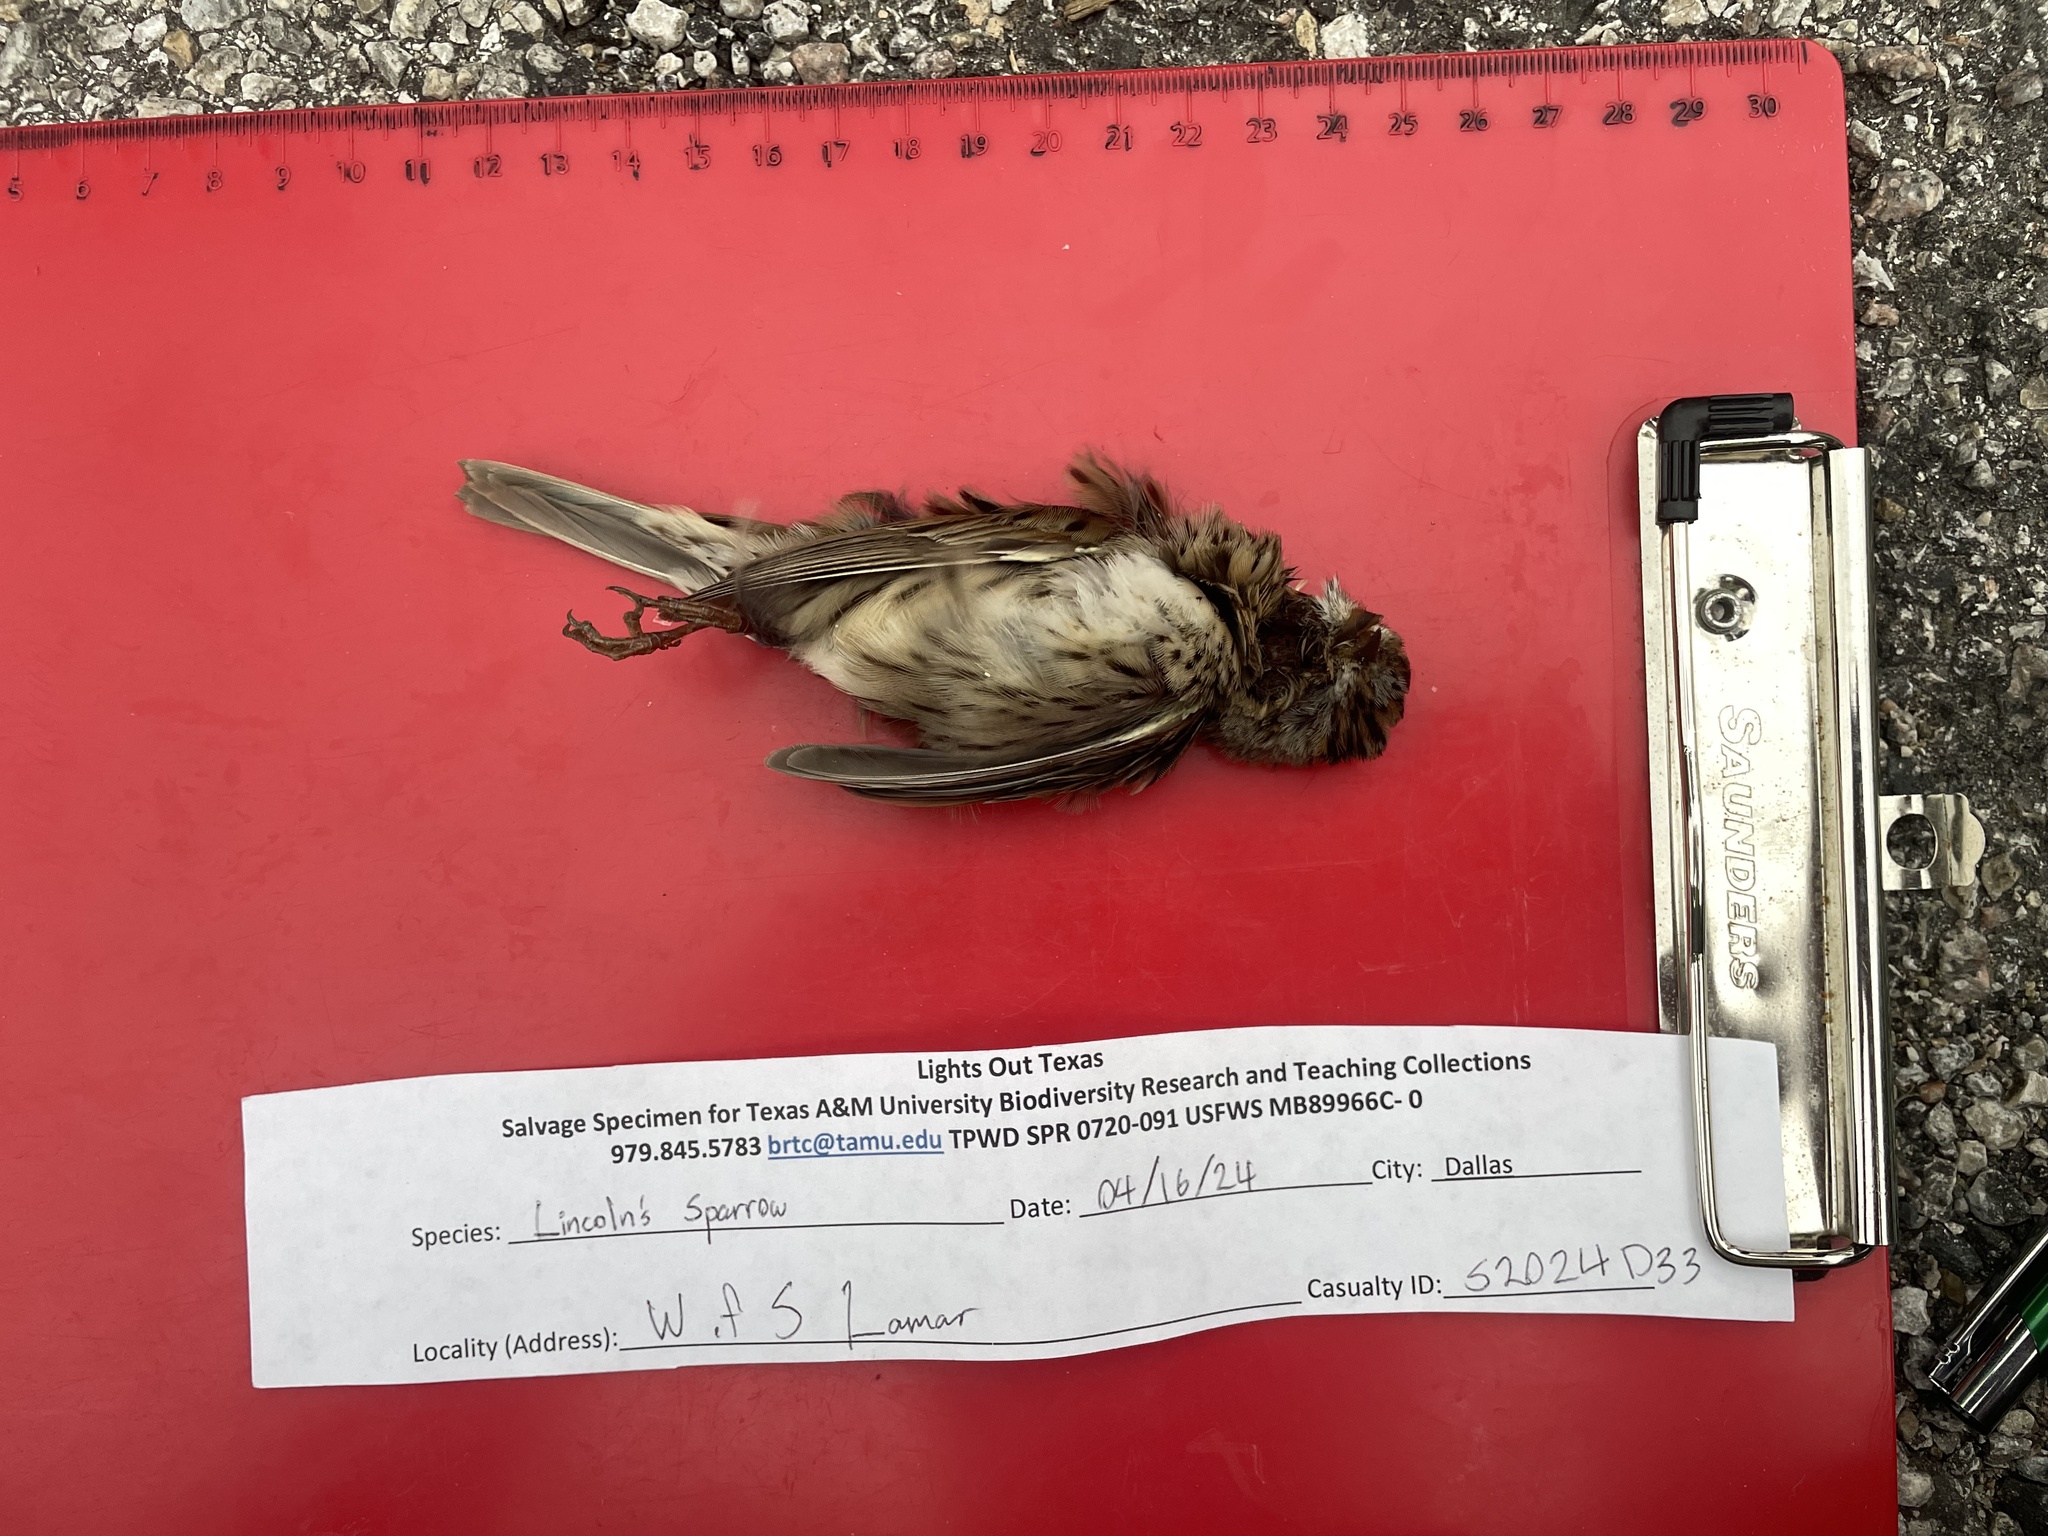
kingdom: Animalia
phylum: Chordata
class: Aves
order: Passeriformes
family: Passerellidae
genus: Melospiza
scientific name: Melospiza lincolnii
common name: Lincoln's sparrow
